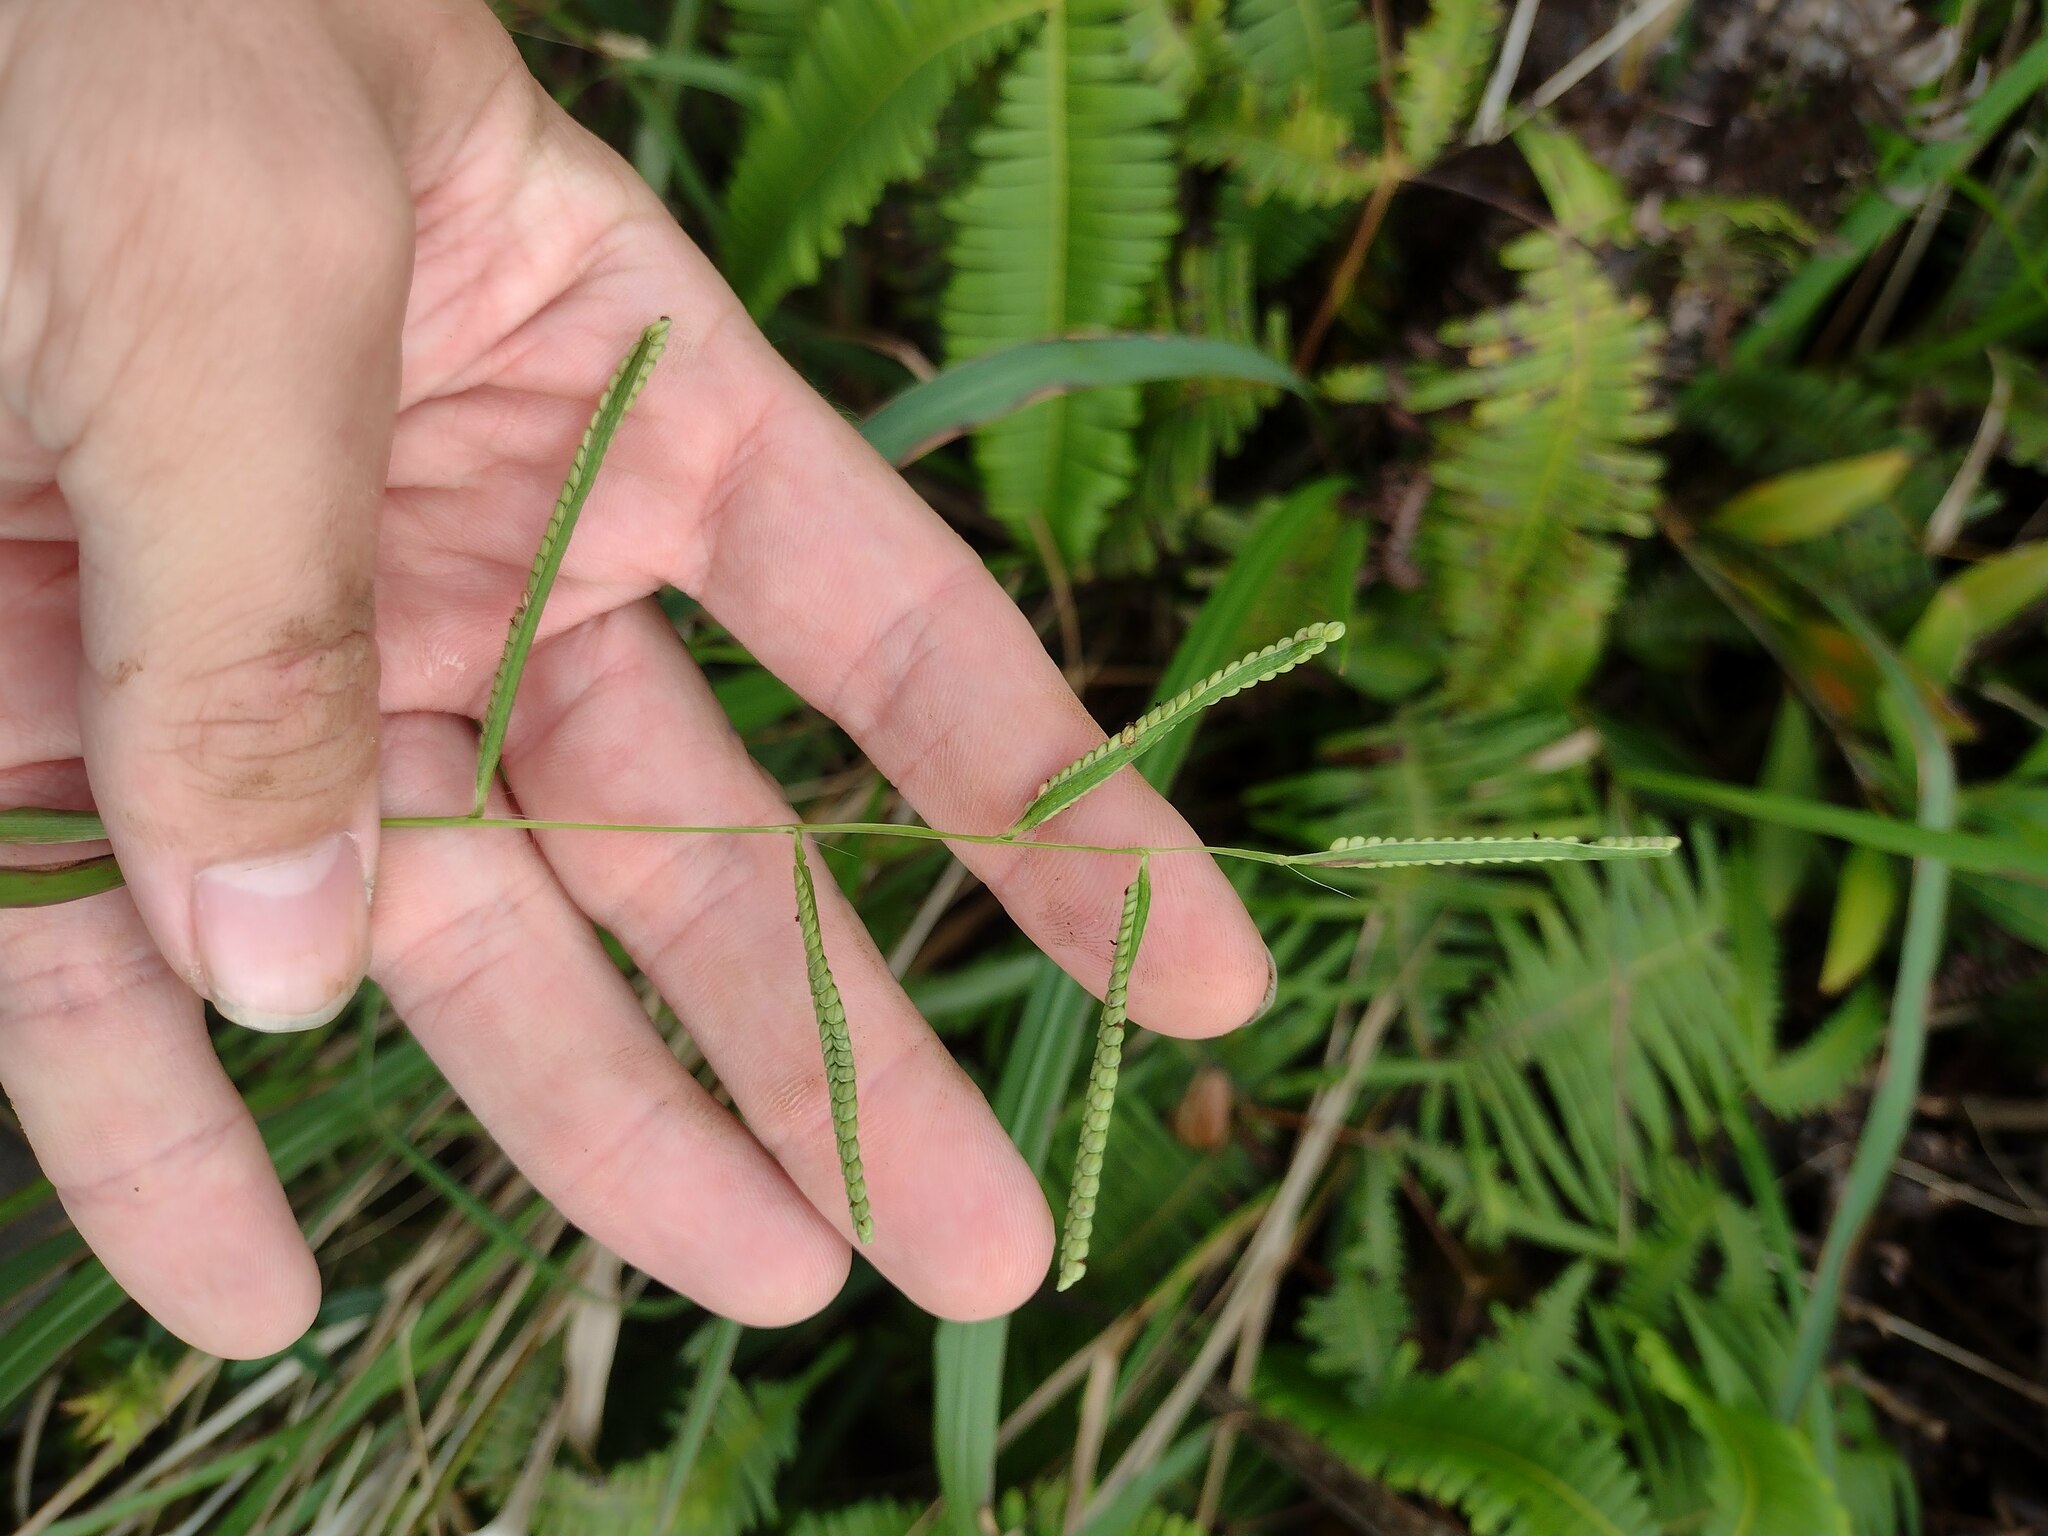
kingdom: Plantae
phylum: Tracheophyta
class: Liliopsida
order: Poales
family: Poaceae
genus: Paspalum
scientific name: Paspalum scrobiculatum
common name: Kodo millet
